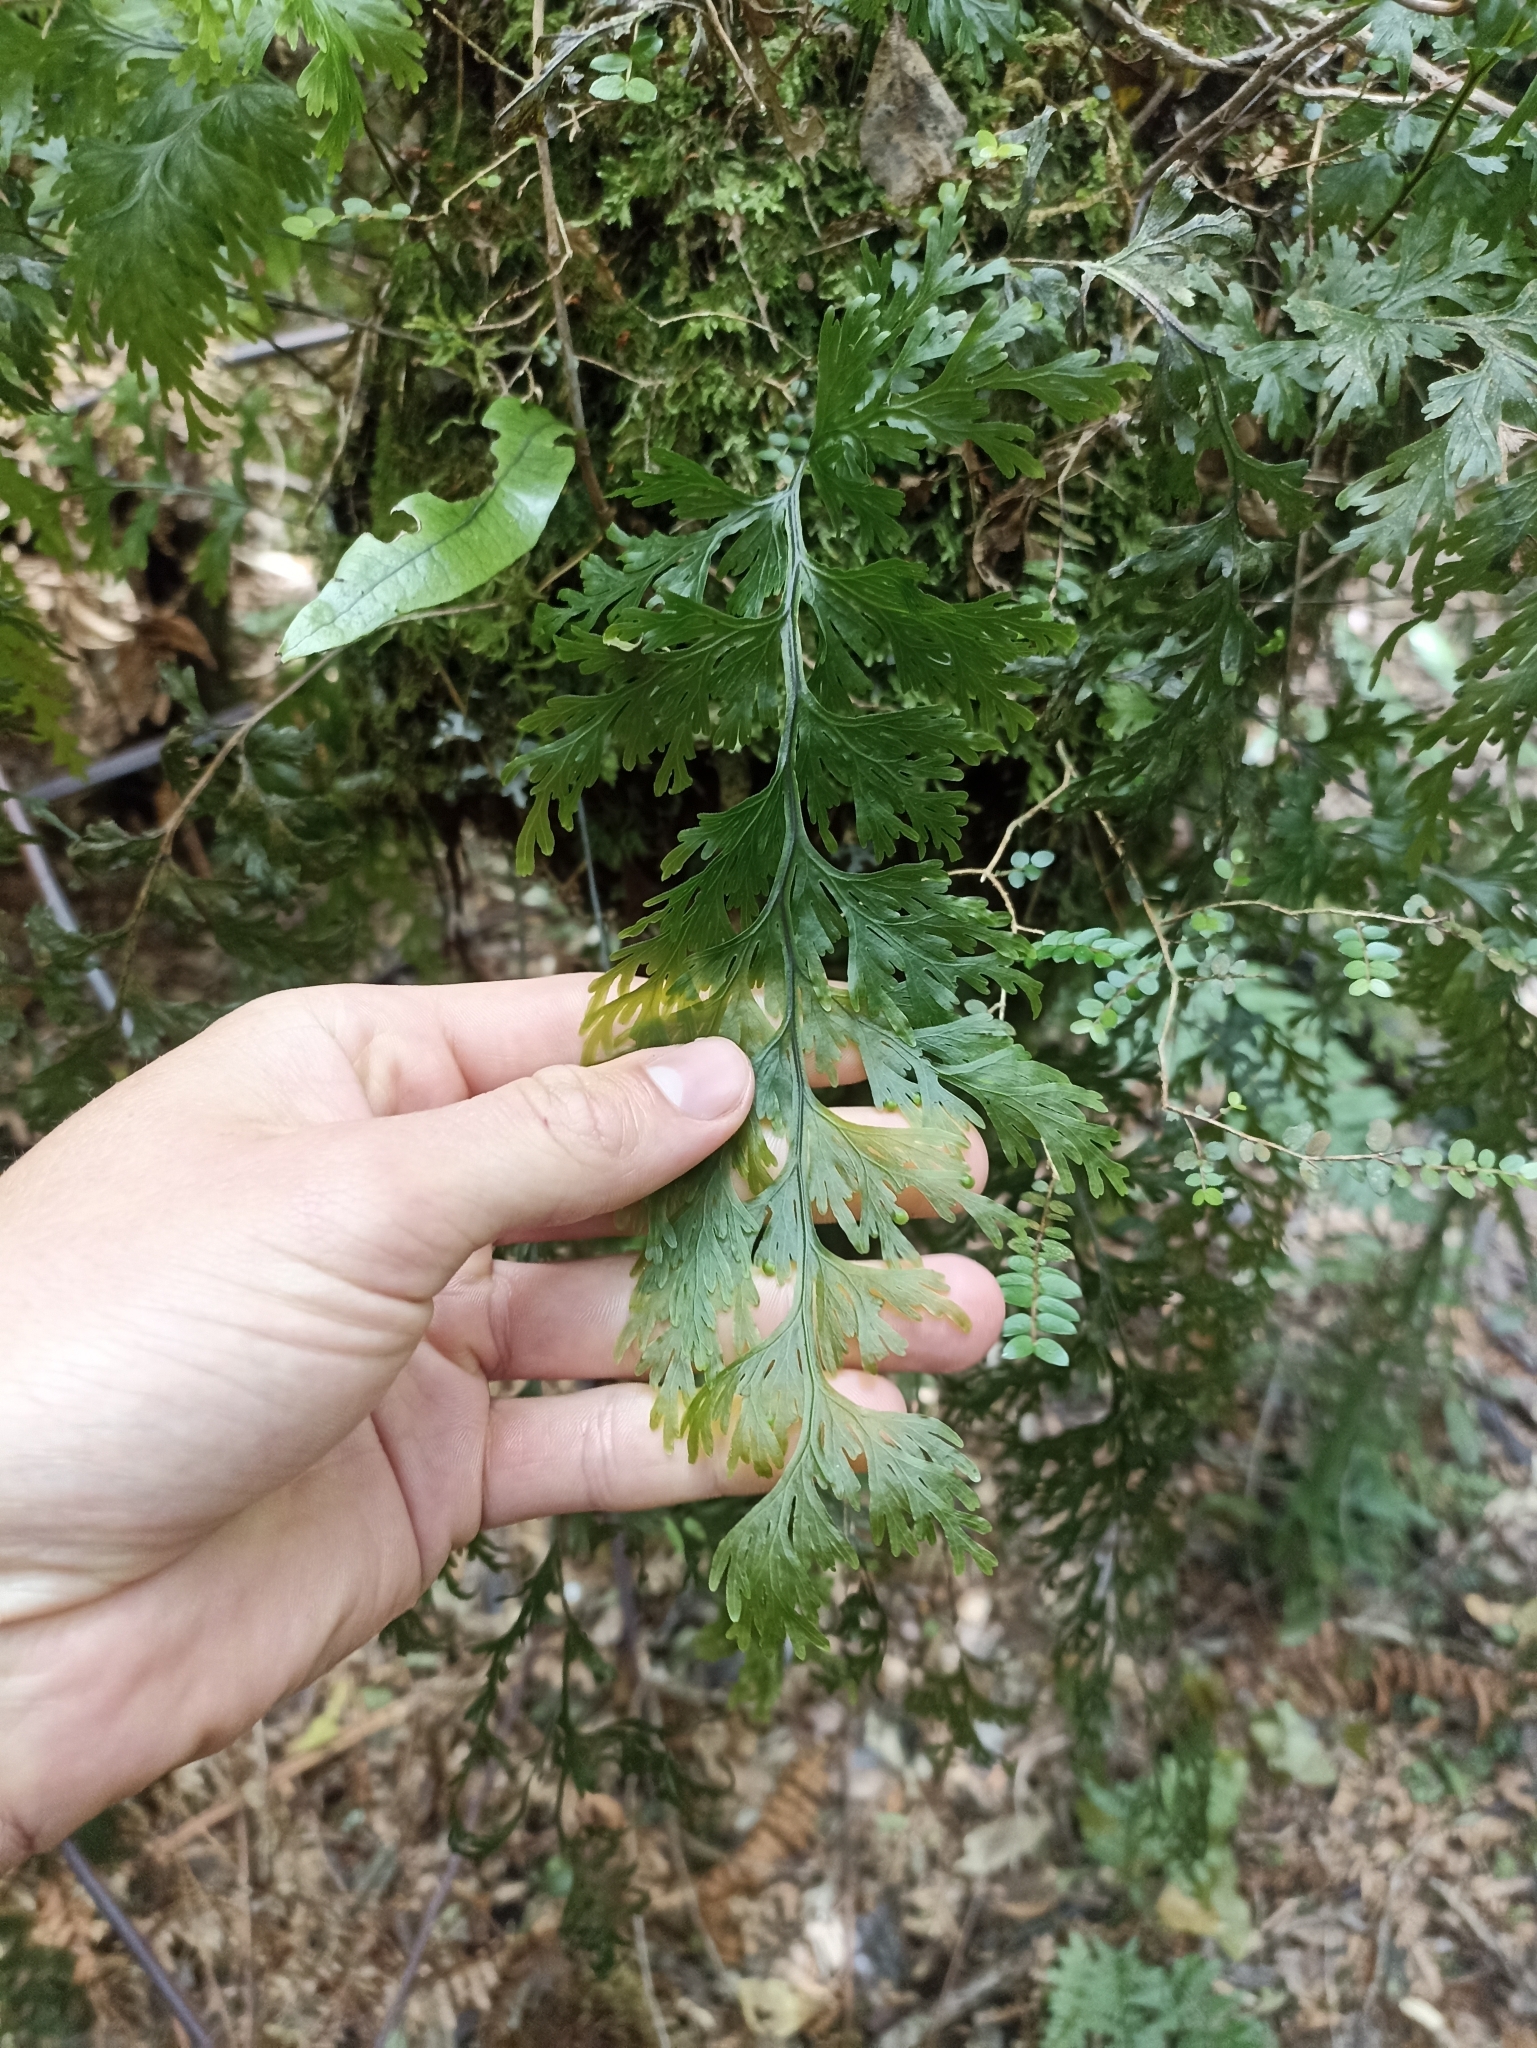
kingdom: Plantae
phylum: Tracheophyta
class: Polypodiopsida
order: Hymenophyllales
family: Hymenophyllaceae
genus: Hymenophyllum
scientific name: Hymenophyllum dilatatum
